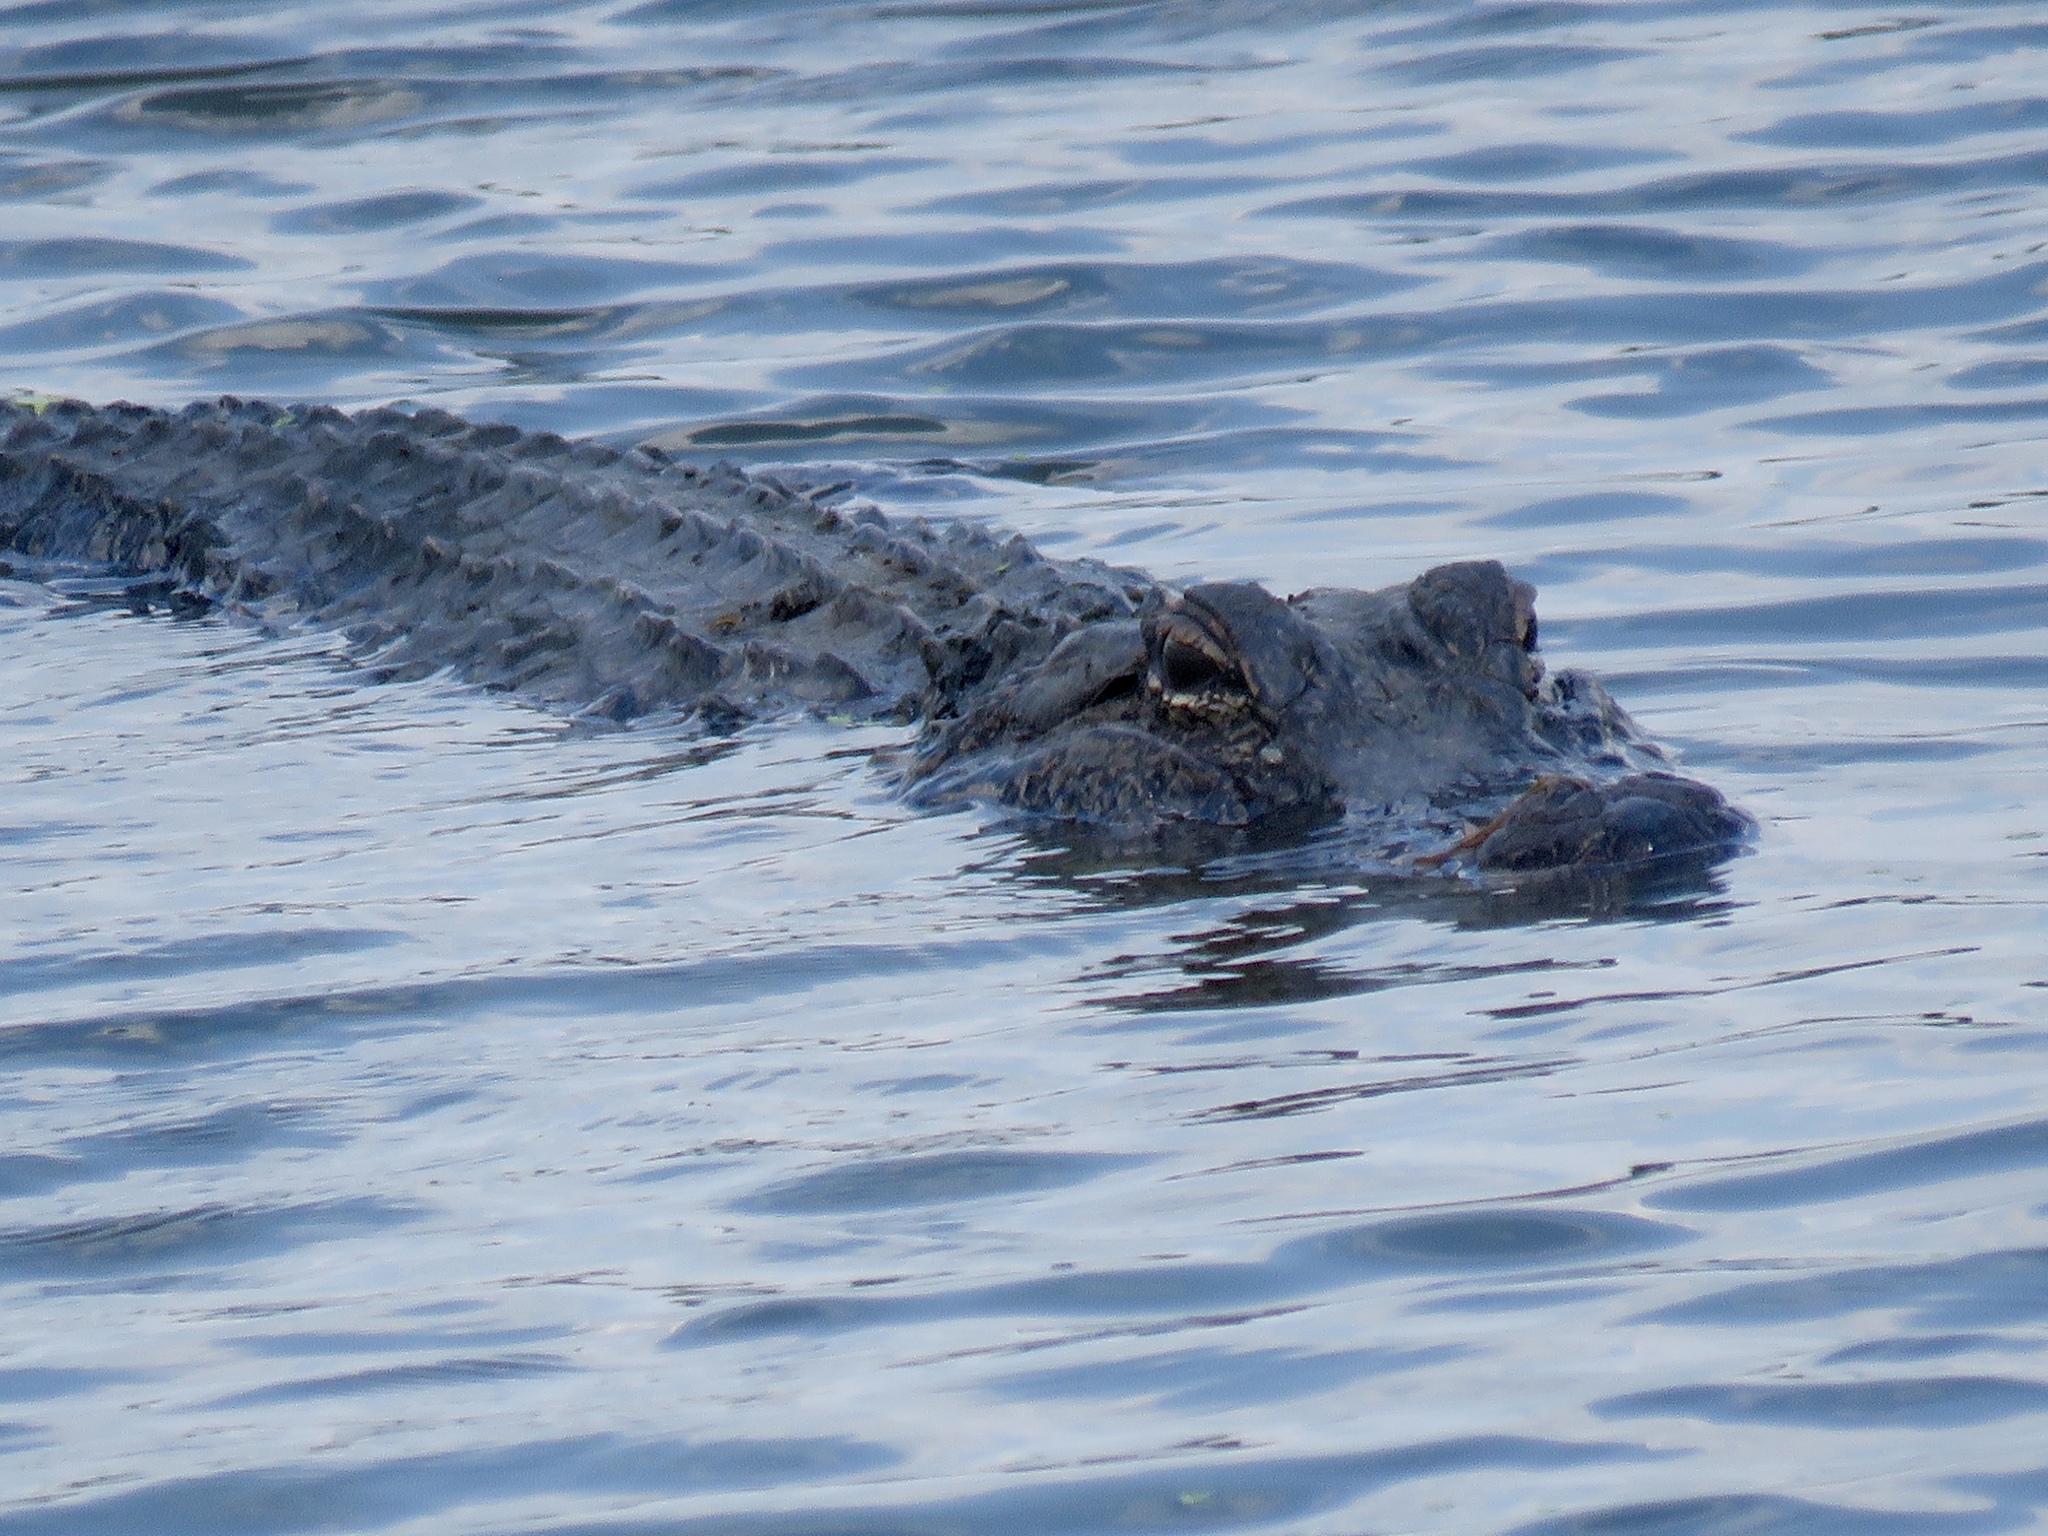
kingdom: Animalia
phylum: Chordata
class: Crocodylia
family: Alligatoridae
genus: Alligator
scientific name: Alligator mississippiensis
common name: American alligator
